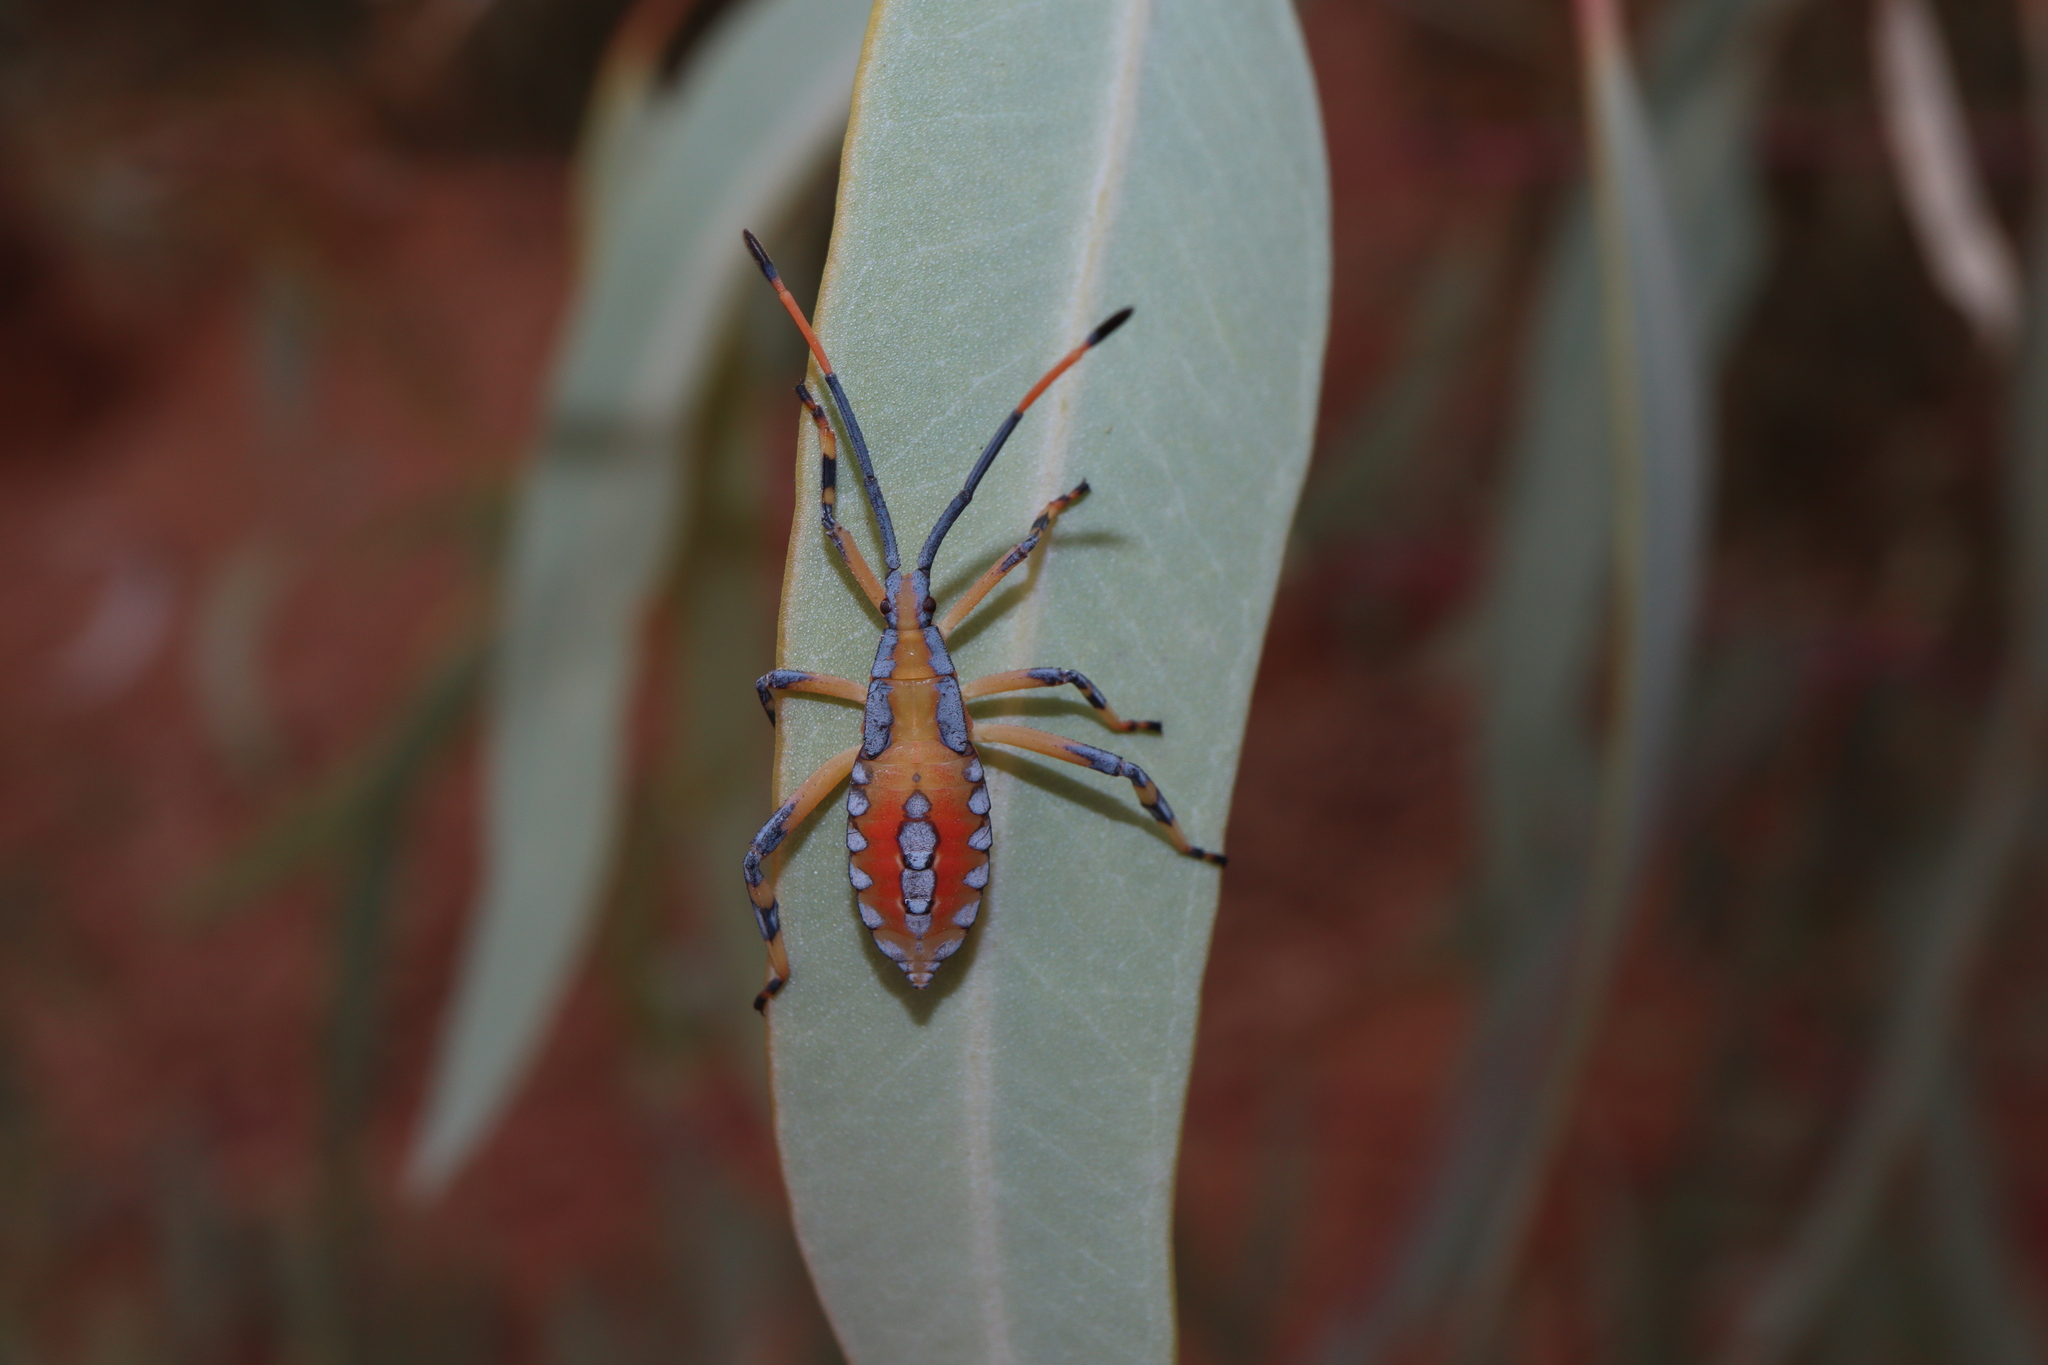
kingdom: Animalia
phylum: Arthropoda
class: Insecta
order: Hemiptera
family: Coreidae
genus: Amorbus
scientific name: Amorbus alternatus
